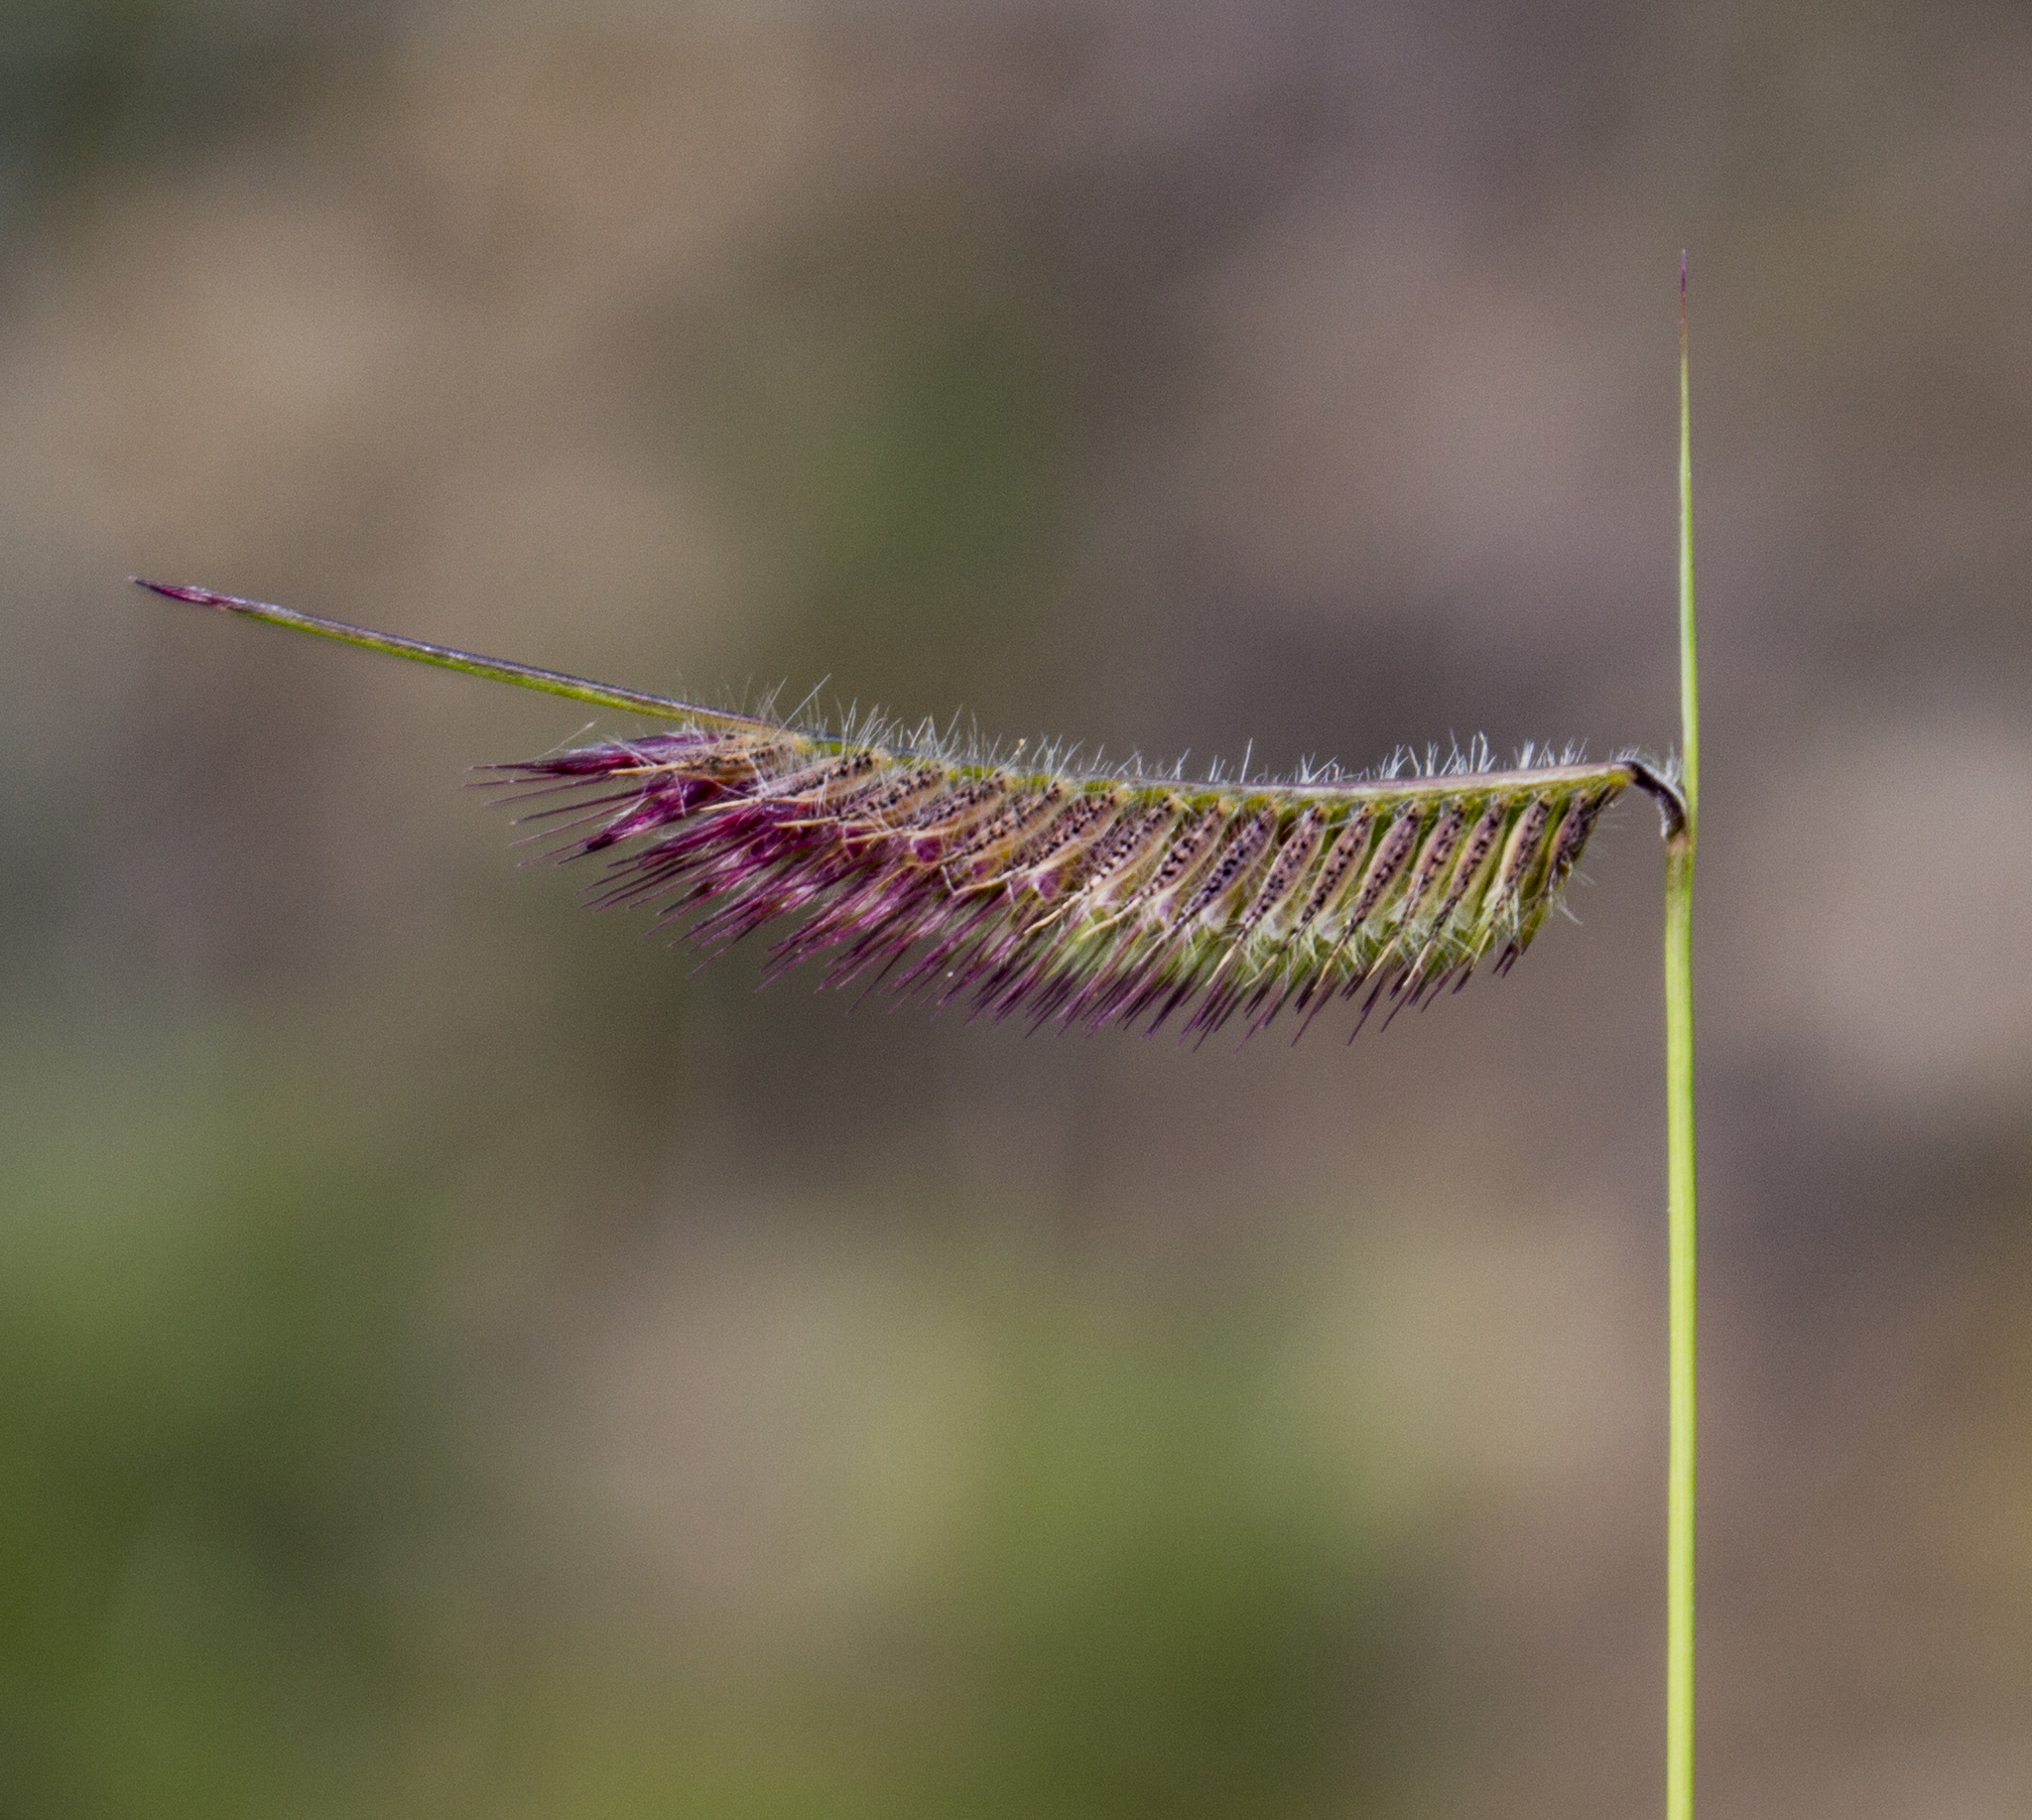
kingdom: Plantae
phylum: Tracheophyta
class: Liliopsida
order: Poales
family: Poaceae
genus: Bouteloua
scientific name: Bouteloua hirsuta
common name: Hairy grama
